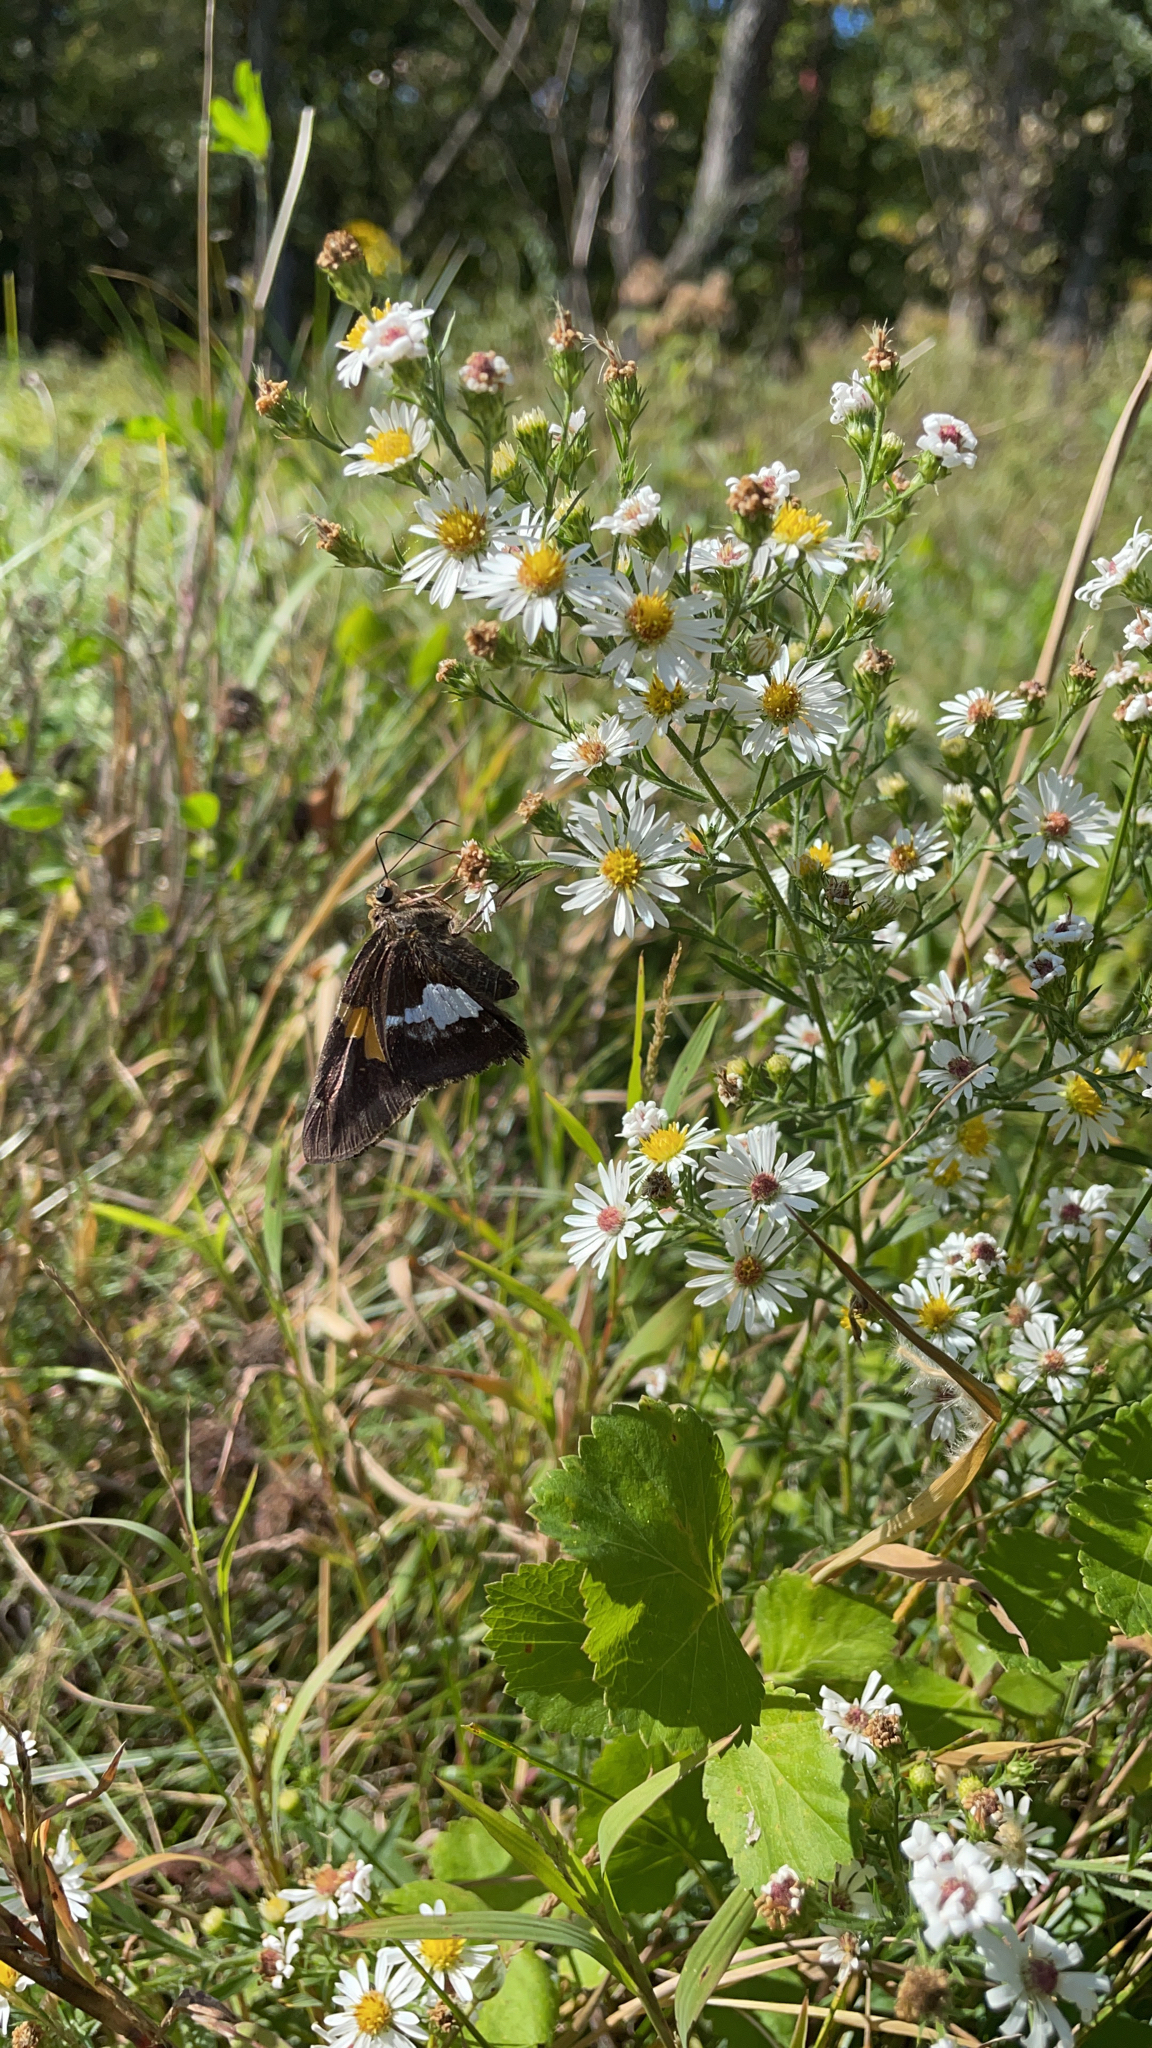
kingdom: Animalia
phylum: Arthropoda
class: Insecta
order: Lepidoptera
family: Hesperiidae
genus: Epargyreus
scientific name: Epargyreus clarus
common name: Silver-spotted skipper
